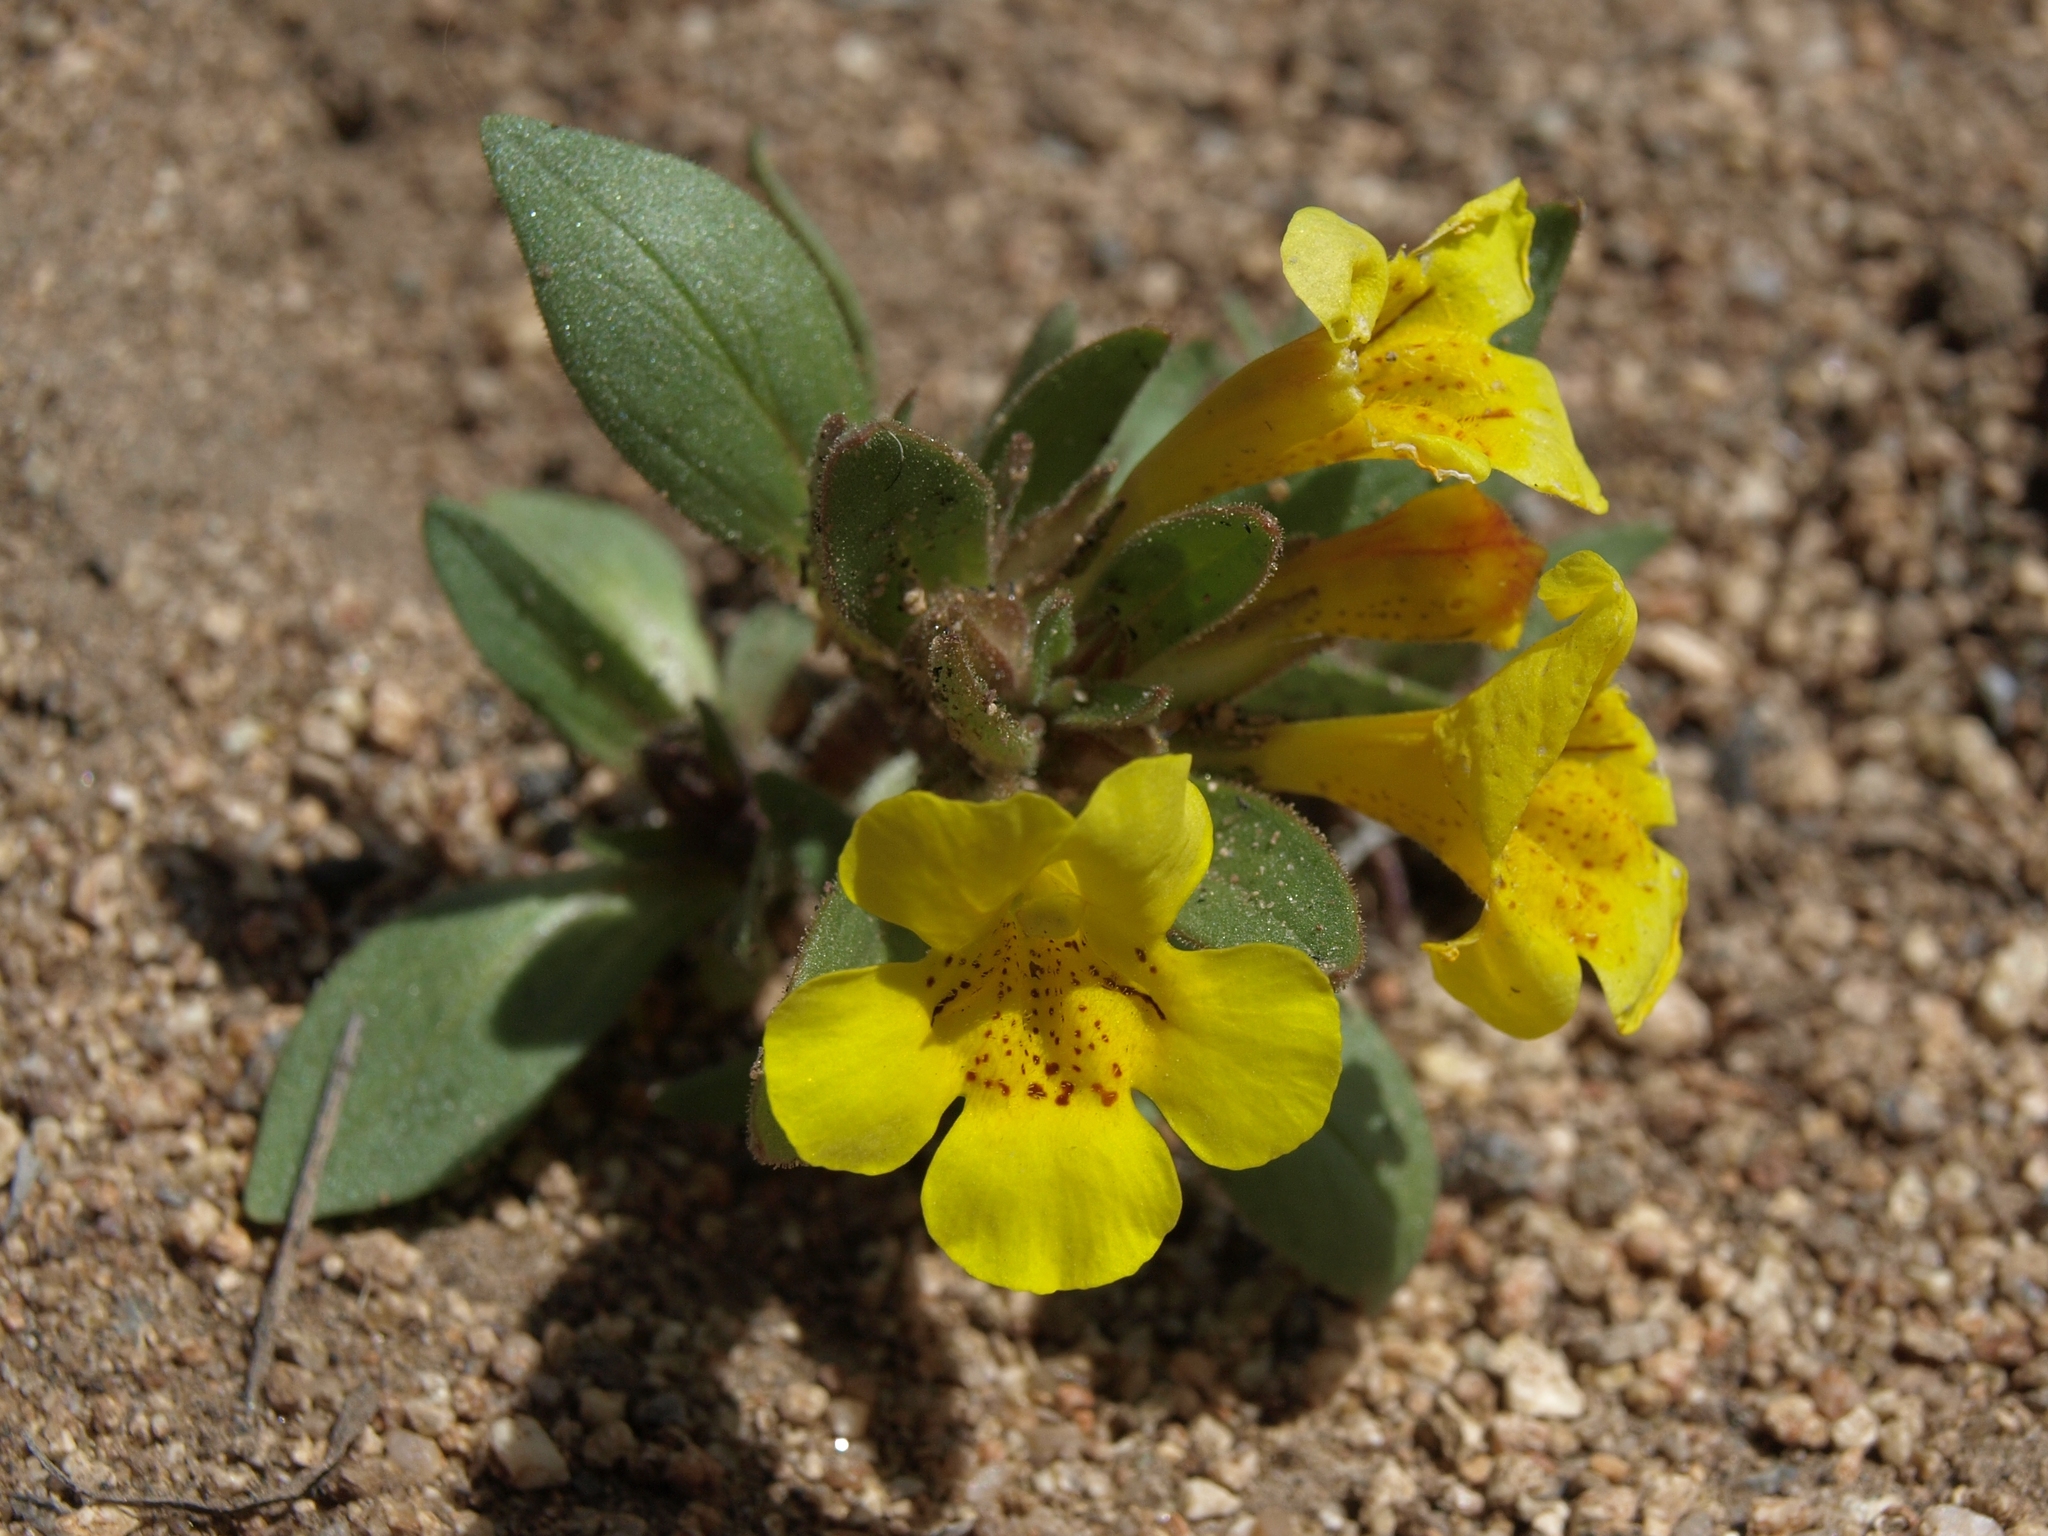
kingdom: Plantae
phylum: Tracheophyta
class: Magnoliopsida
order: Lamiales
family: Phrymaceae
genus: Diplacus
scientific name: Diplacus mephiticus
